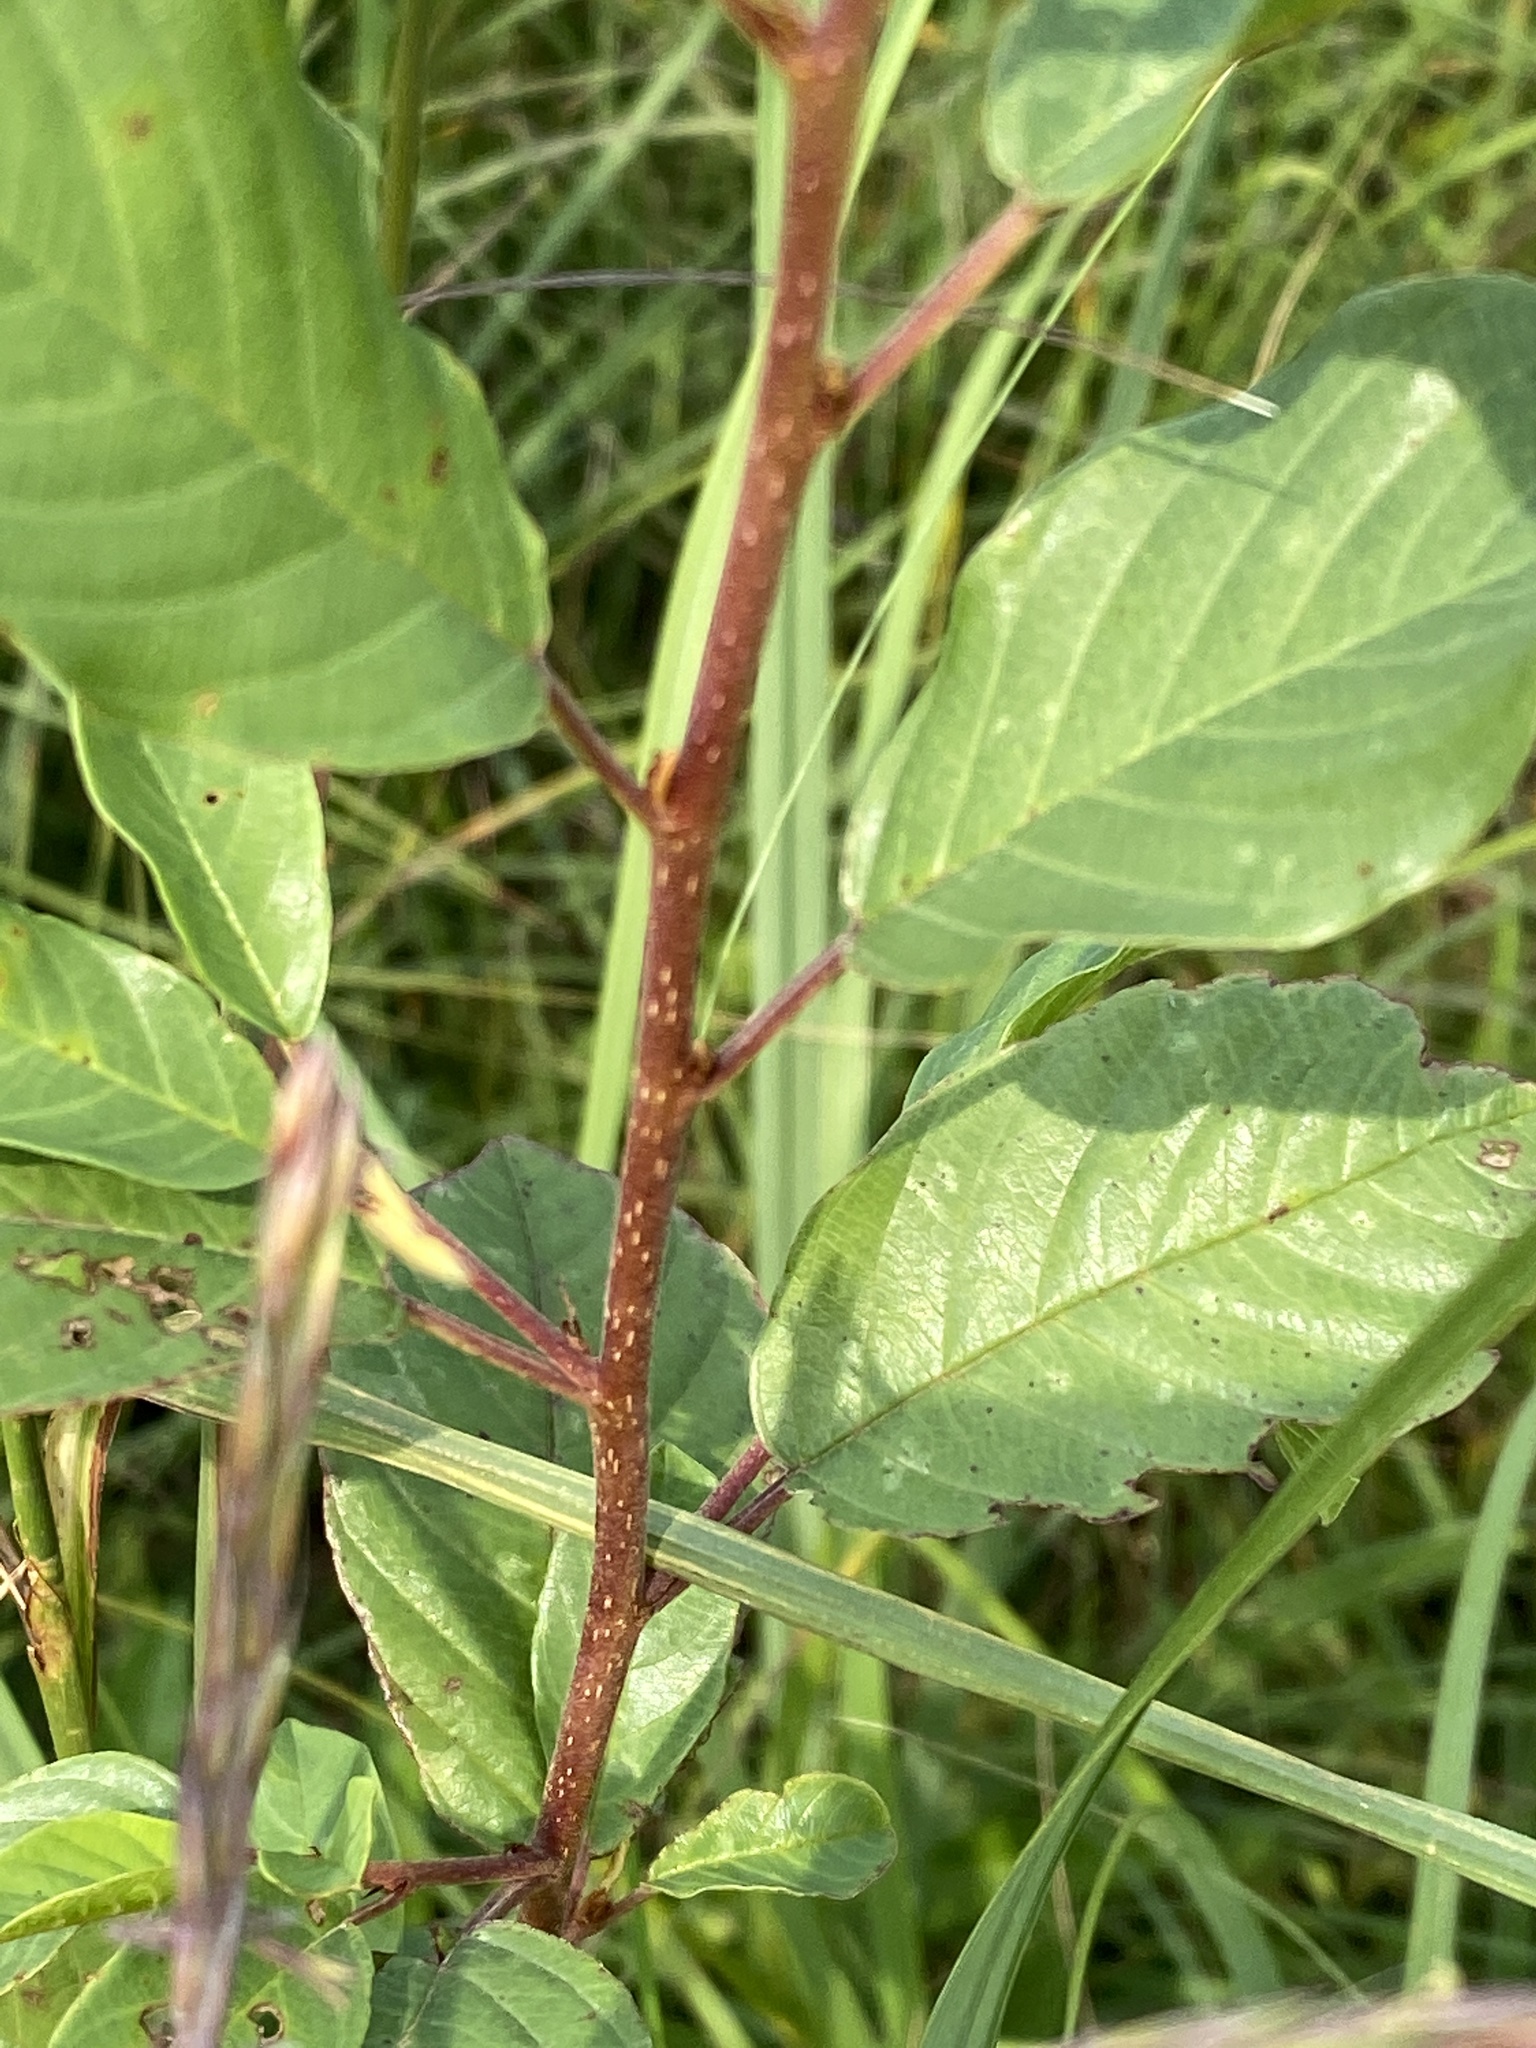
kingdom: Plantae
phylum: Tracheophyta
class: Magnoliopsida
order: Rosales
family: Rhamnaceae
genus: Frangula
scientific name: Frangula alnus
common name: Alder buckthorn
